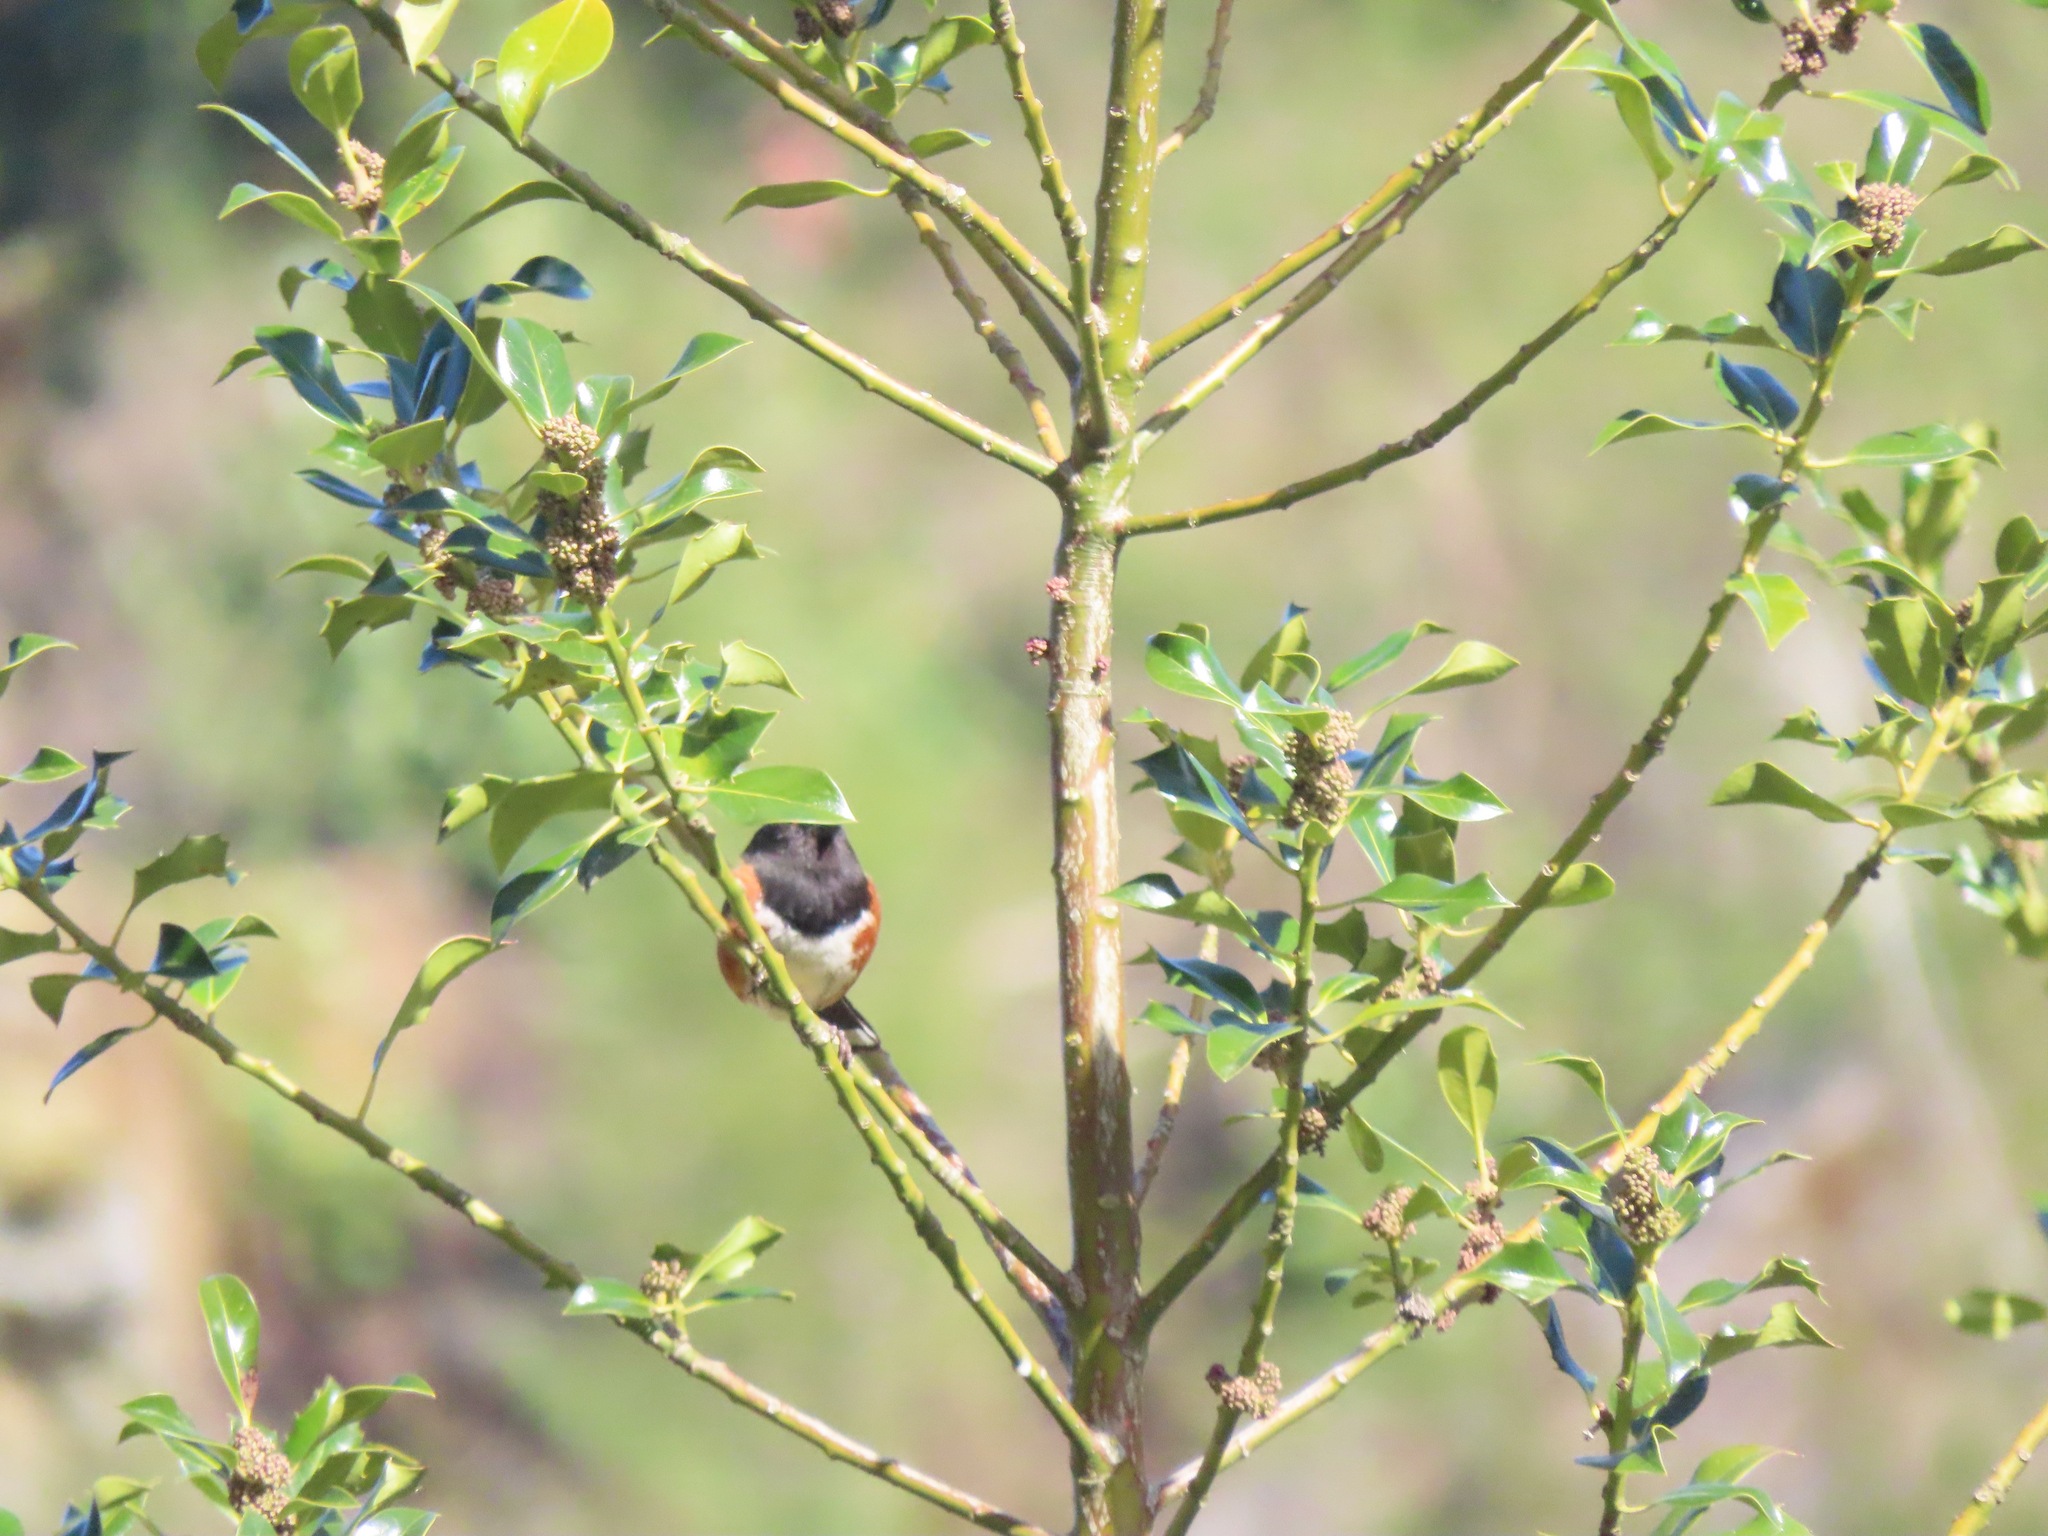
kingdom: Animalia
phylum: Chordata
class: Aves
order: Passeriformes
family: Passerellidae
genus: Pipilo
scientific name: Pipilo maculatus
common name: Spotted towhee
